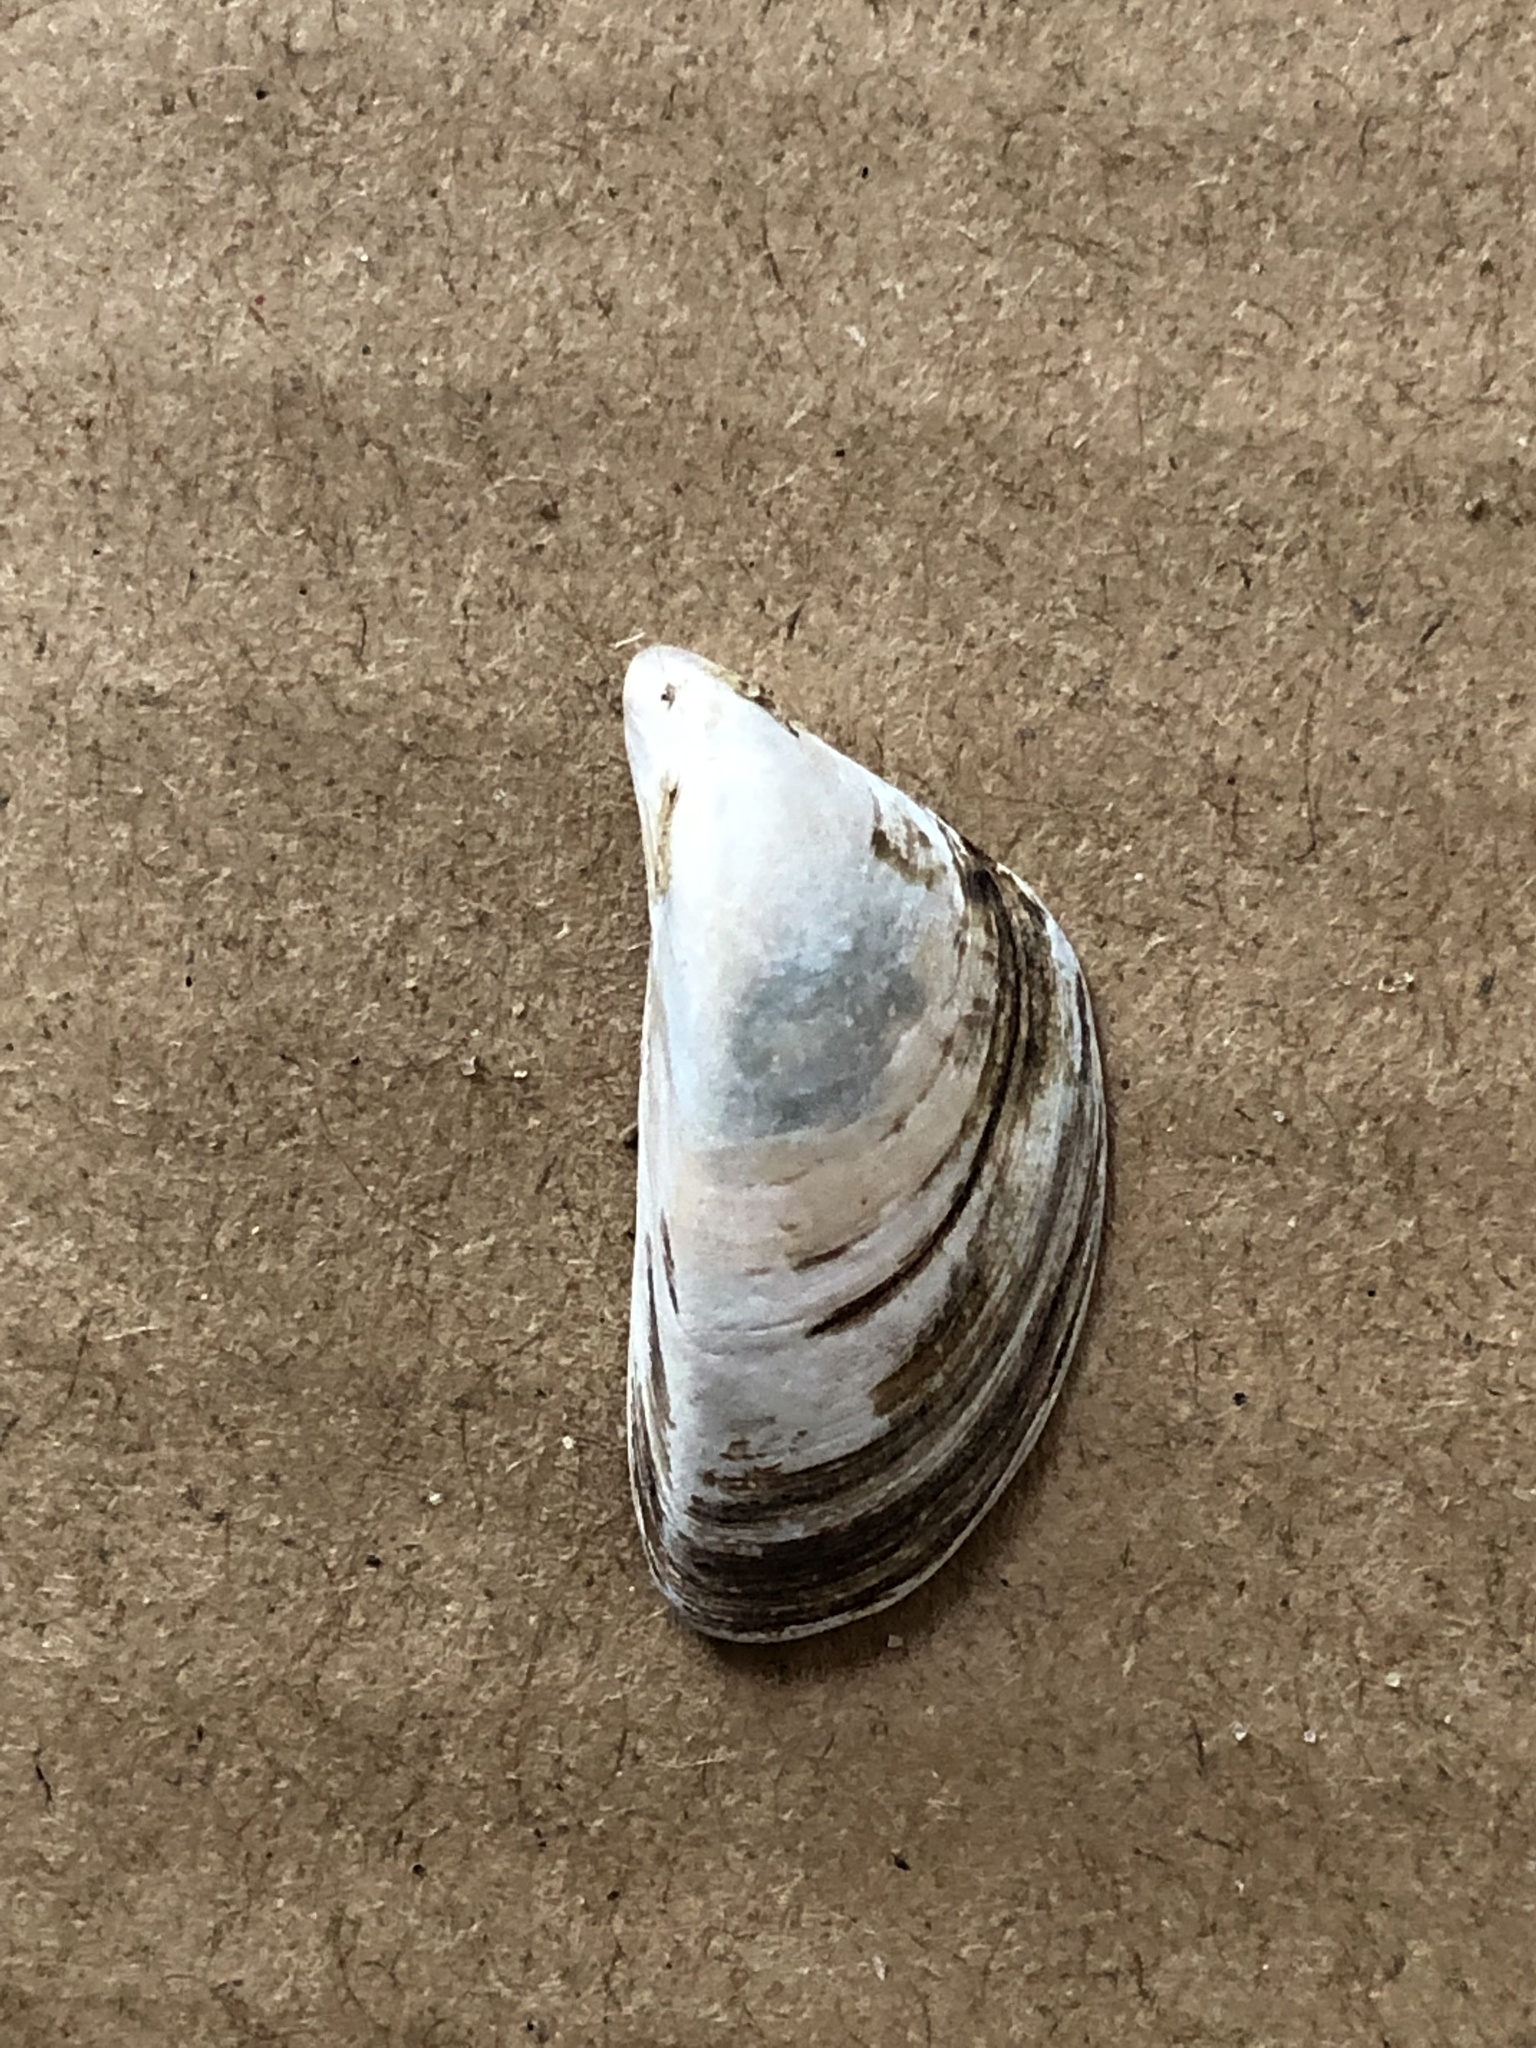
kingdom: Animalia
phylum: Mollusca
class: Bivalvia
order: Myida
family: Dreissenidae
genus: Dreissena
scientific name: Dreissena polymorpha
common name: Zebra mussel
